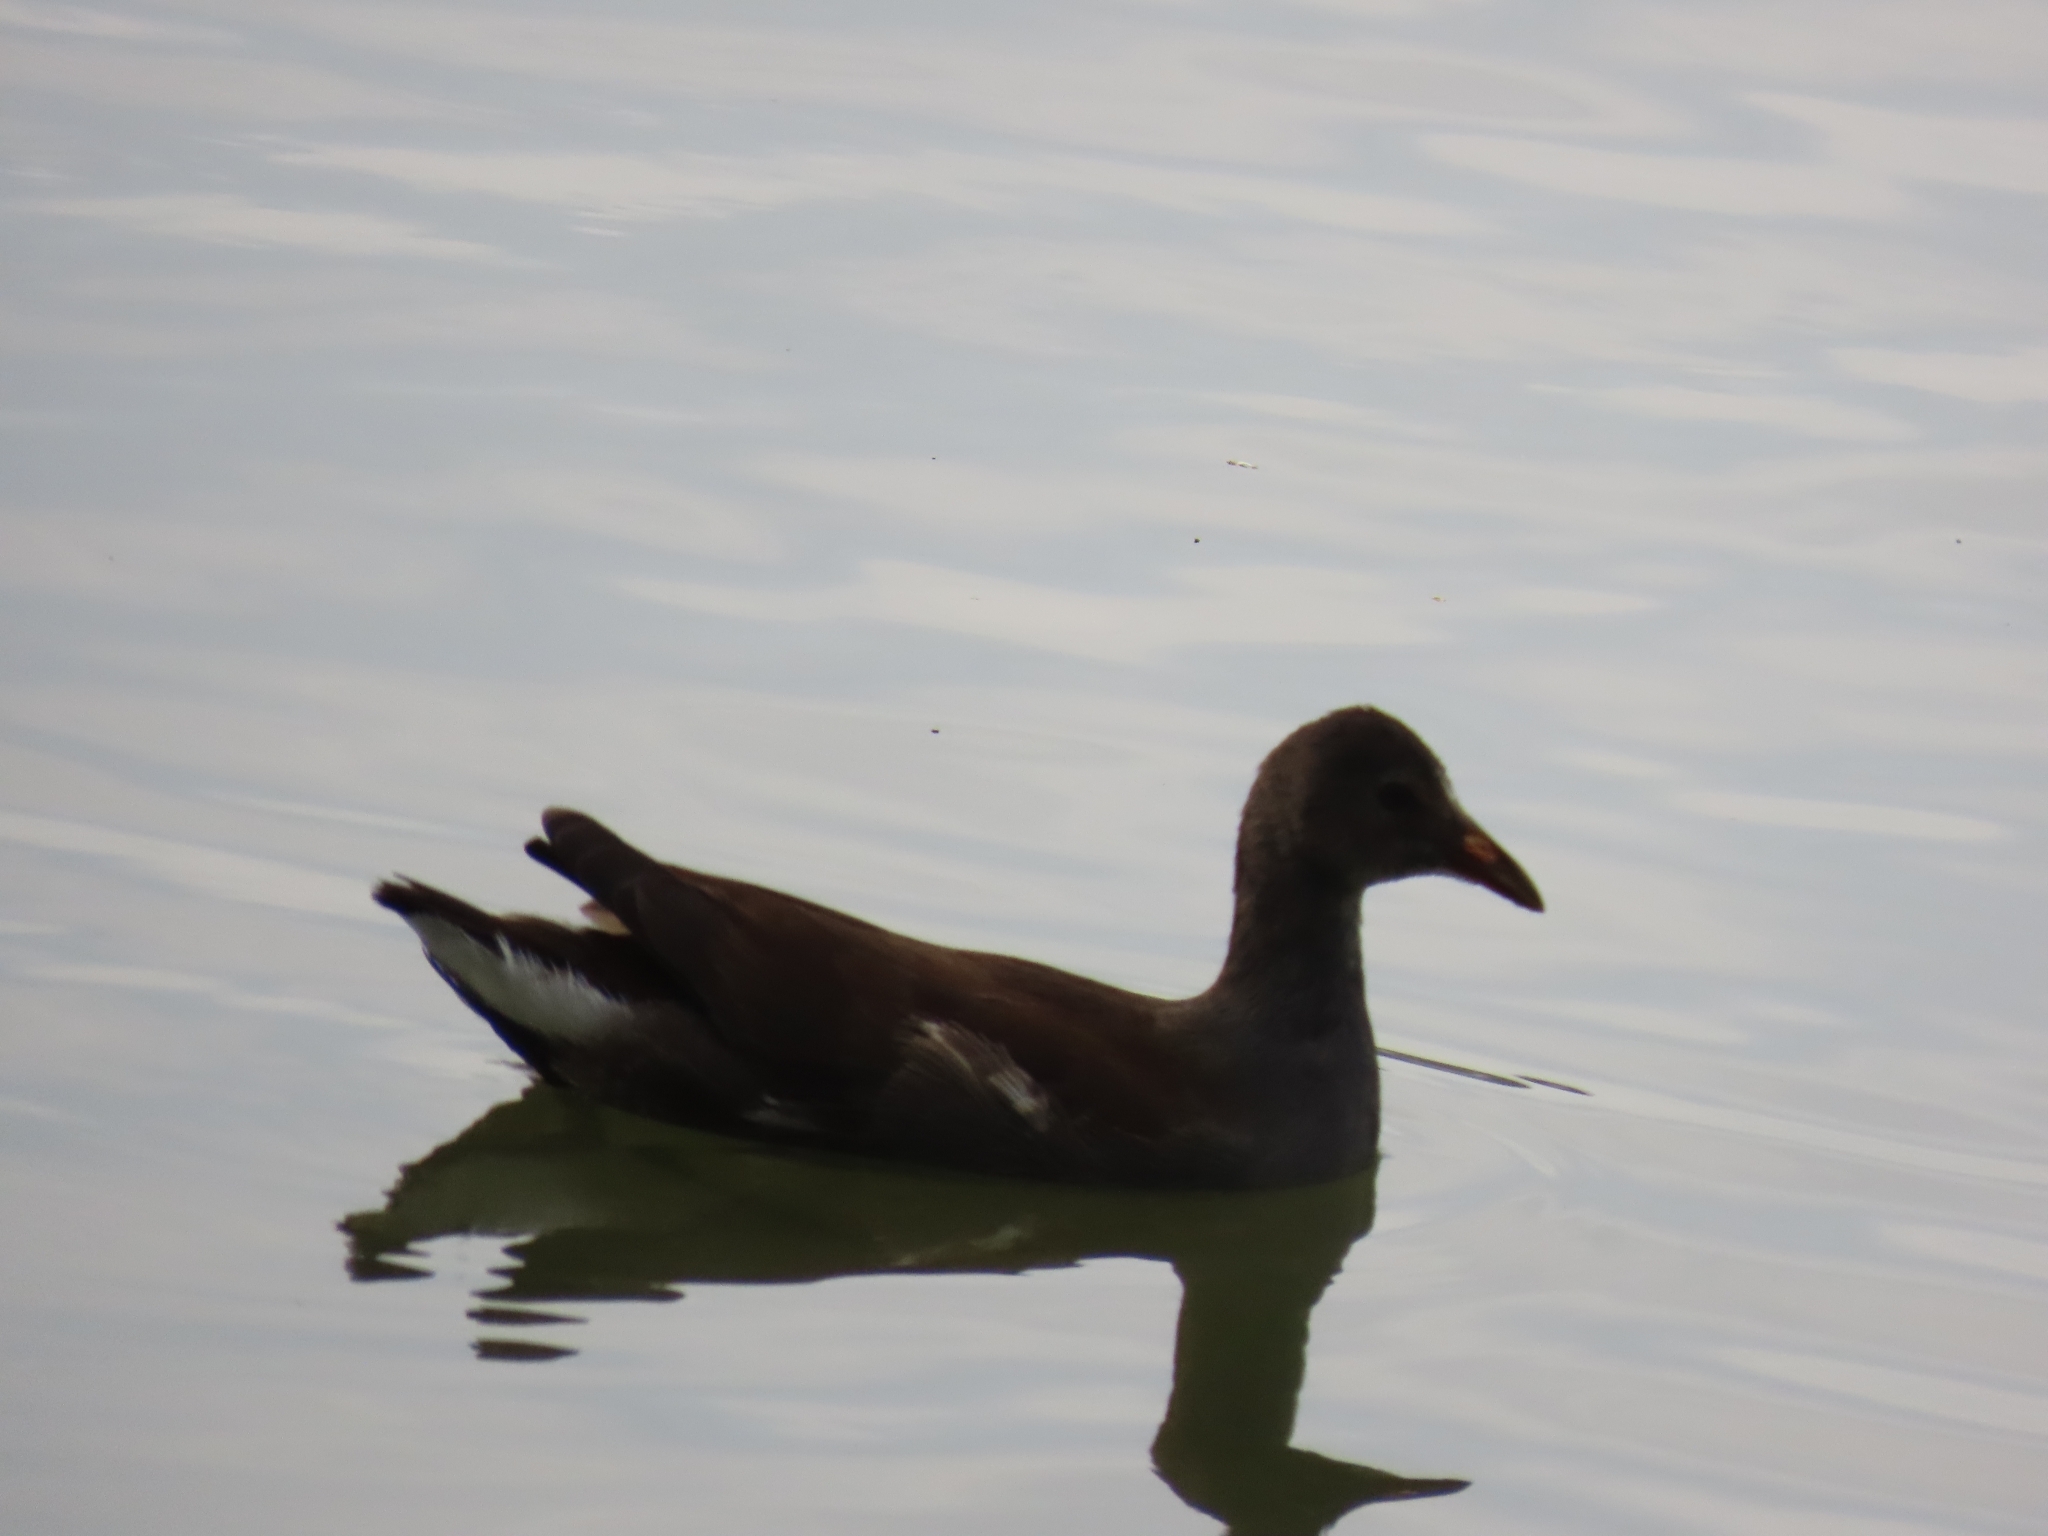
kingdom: Animalia
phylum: Chordata
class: Aves
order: Gruiformes
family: Rallidae
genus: Gallinula
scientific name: Gallinula chloropus
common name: Common moorhen
